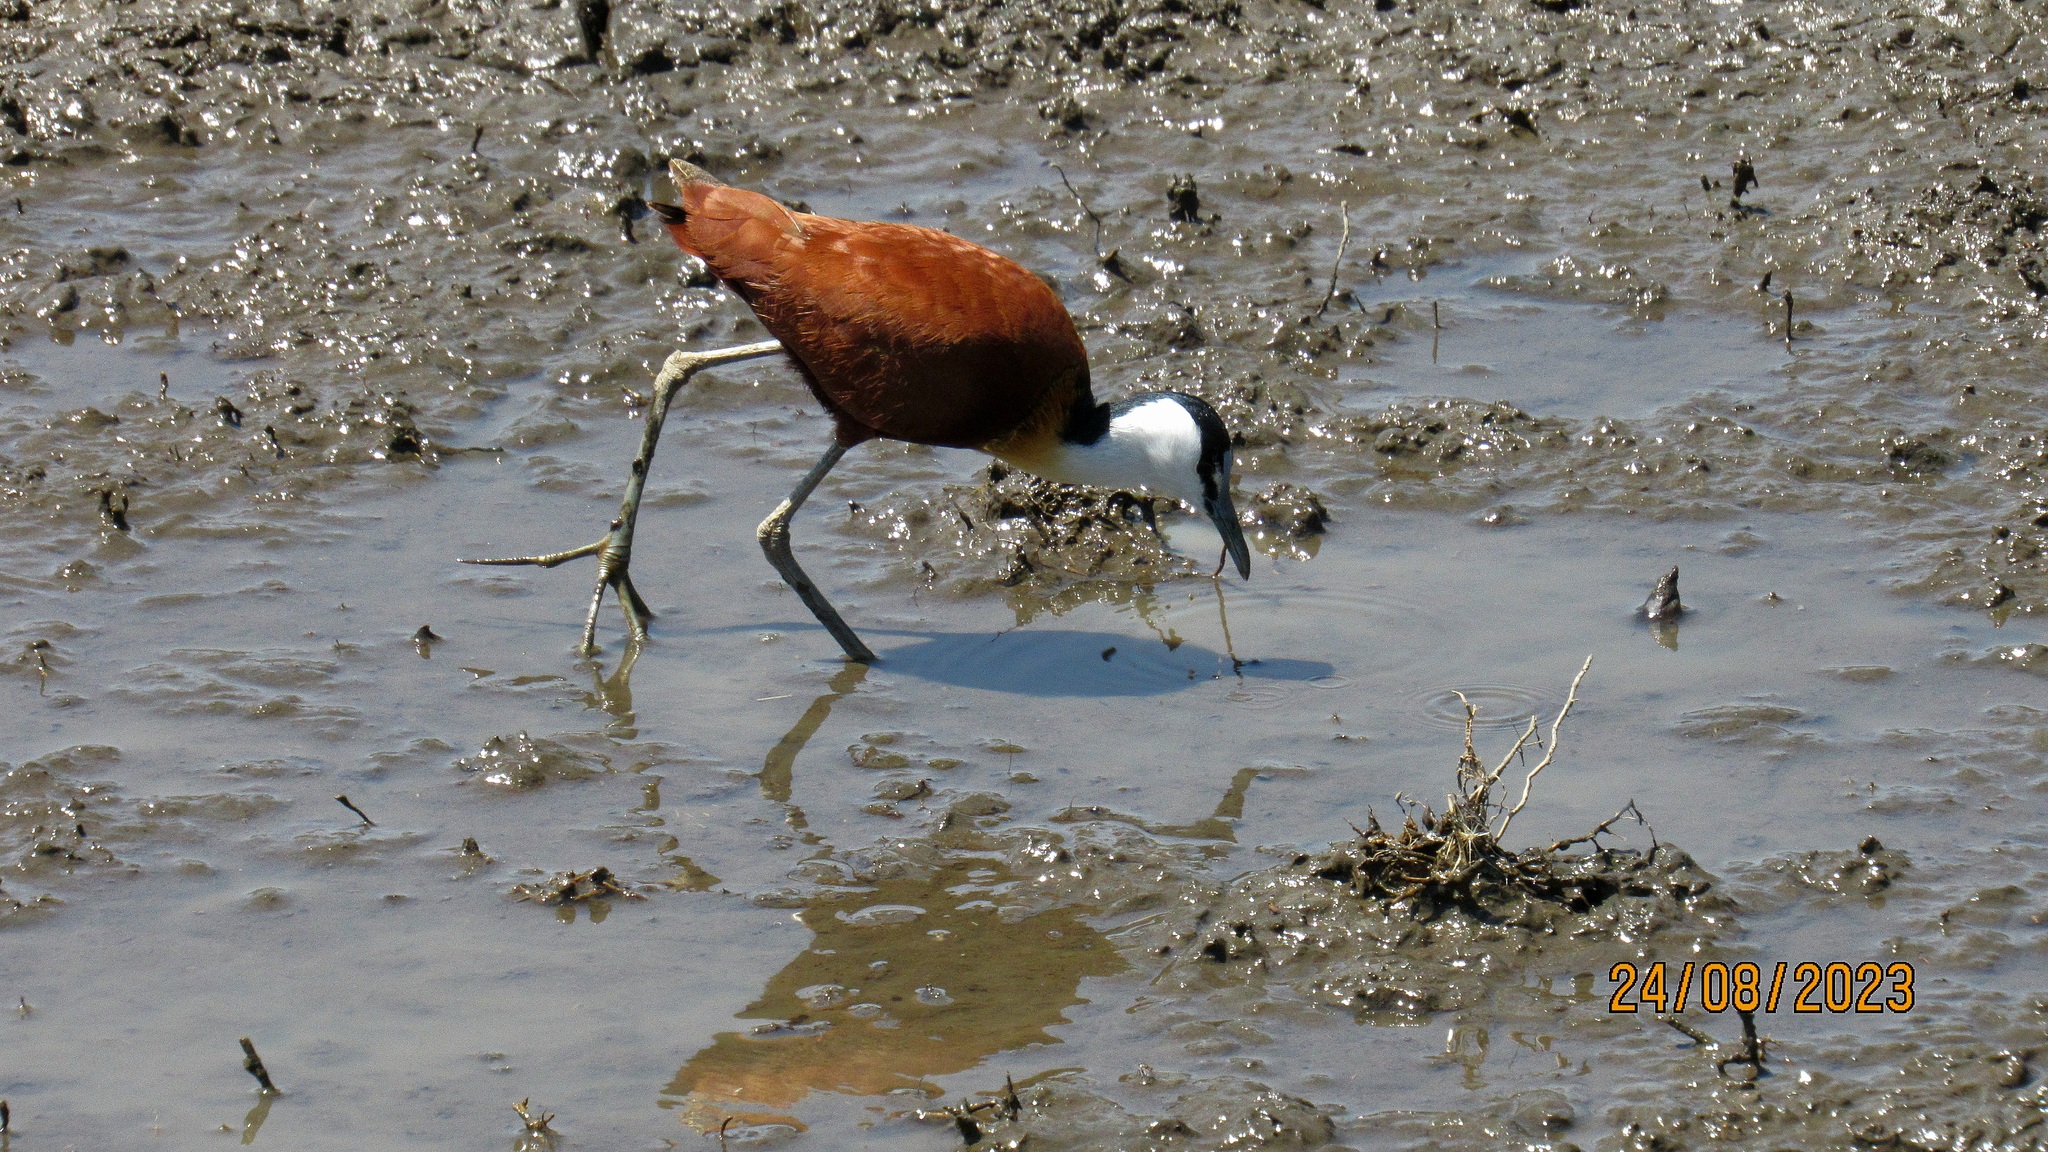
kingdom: Animalia
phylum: Chordata
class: Aves
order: Charadriiformes
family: Jacanidae
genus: Actophilornis
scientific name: Actophilornis africanus
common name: African jacana
